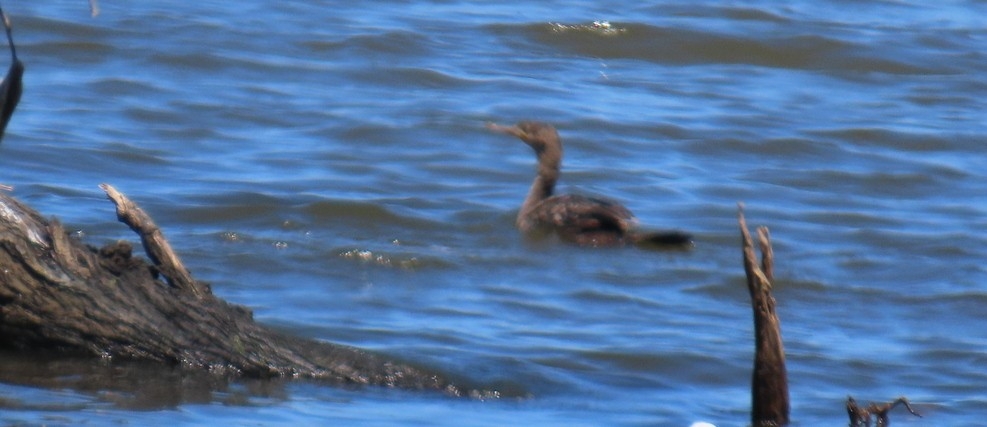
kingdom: Animalia
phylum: Chordata
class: Aves
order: Suliformes
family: Phalacrocoracidae
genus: Phalacrocorax
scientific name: Phalacrocorax capensis
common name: Cape cormorant
